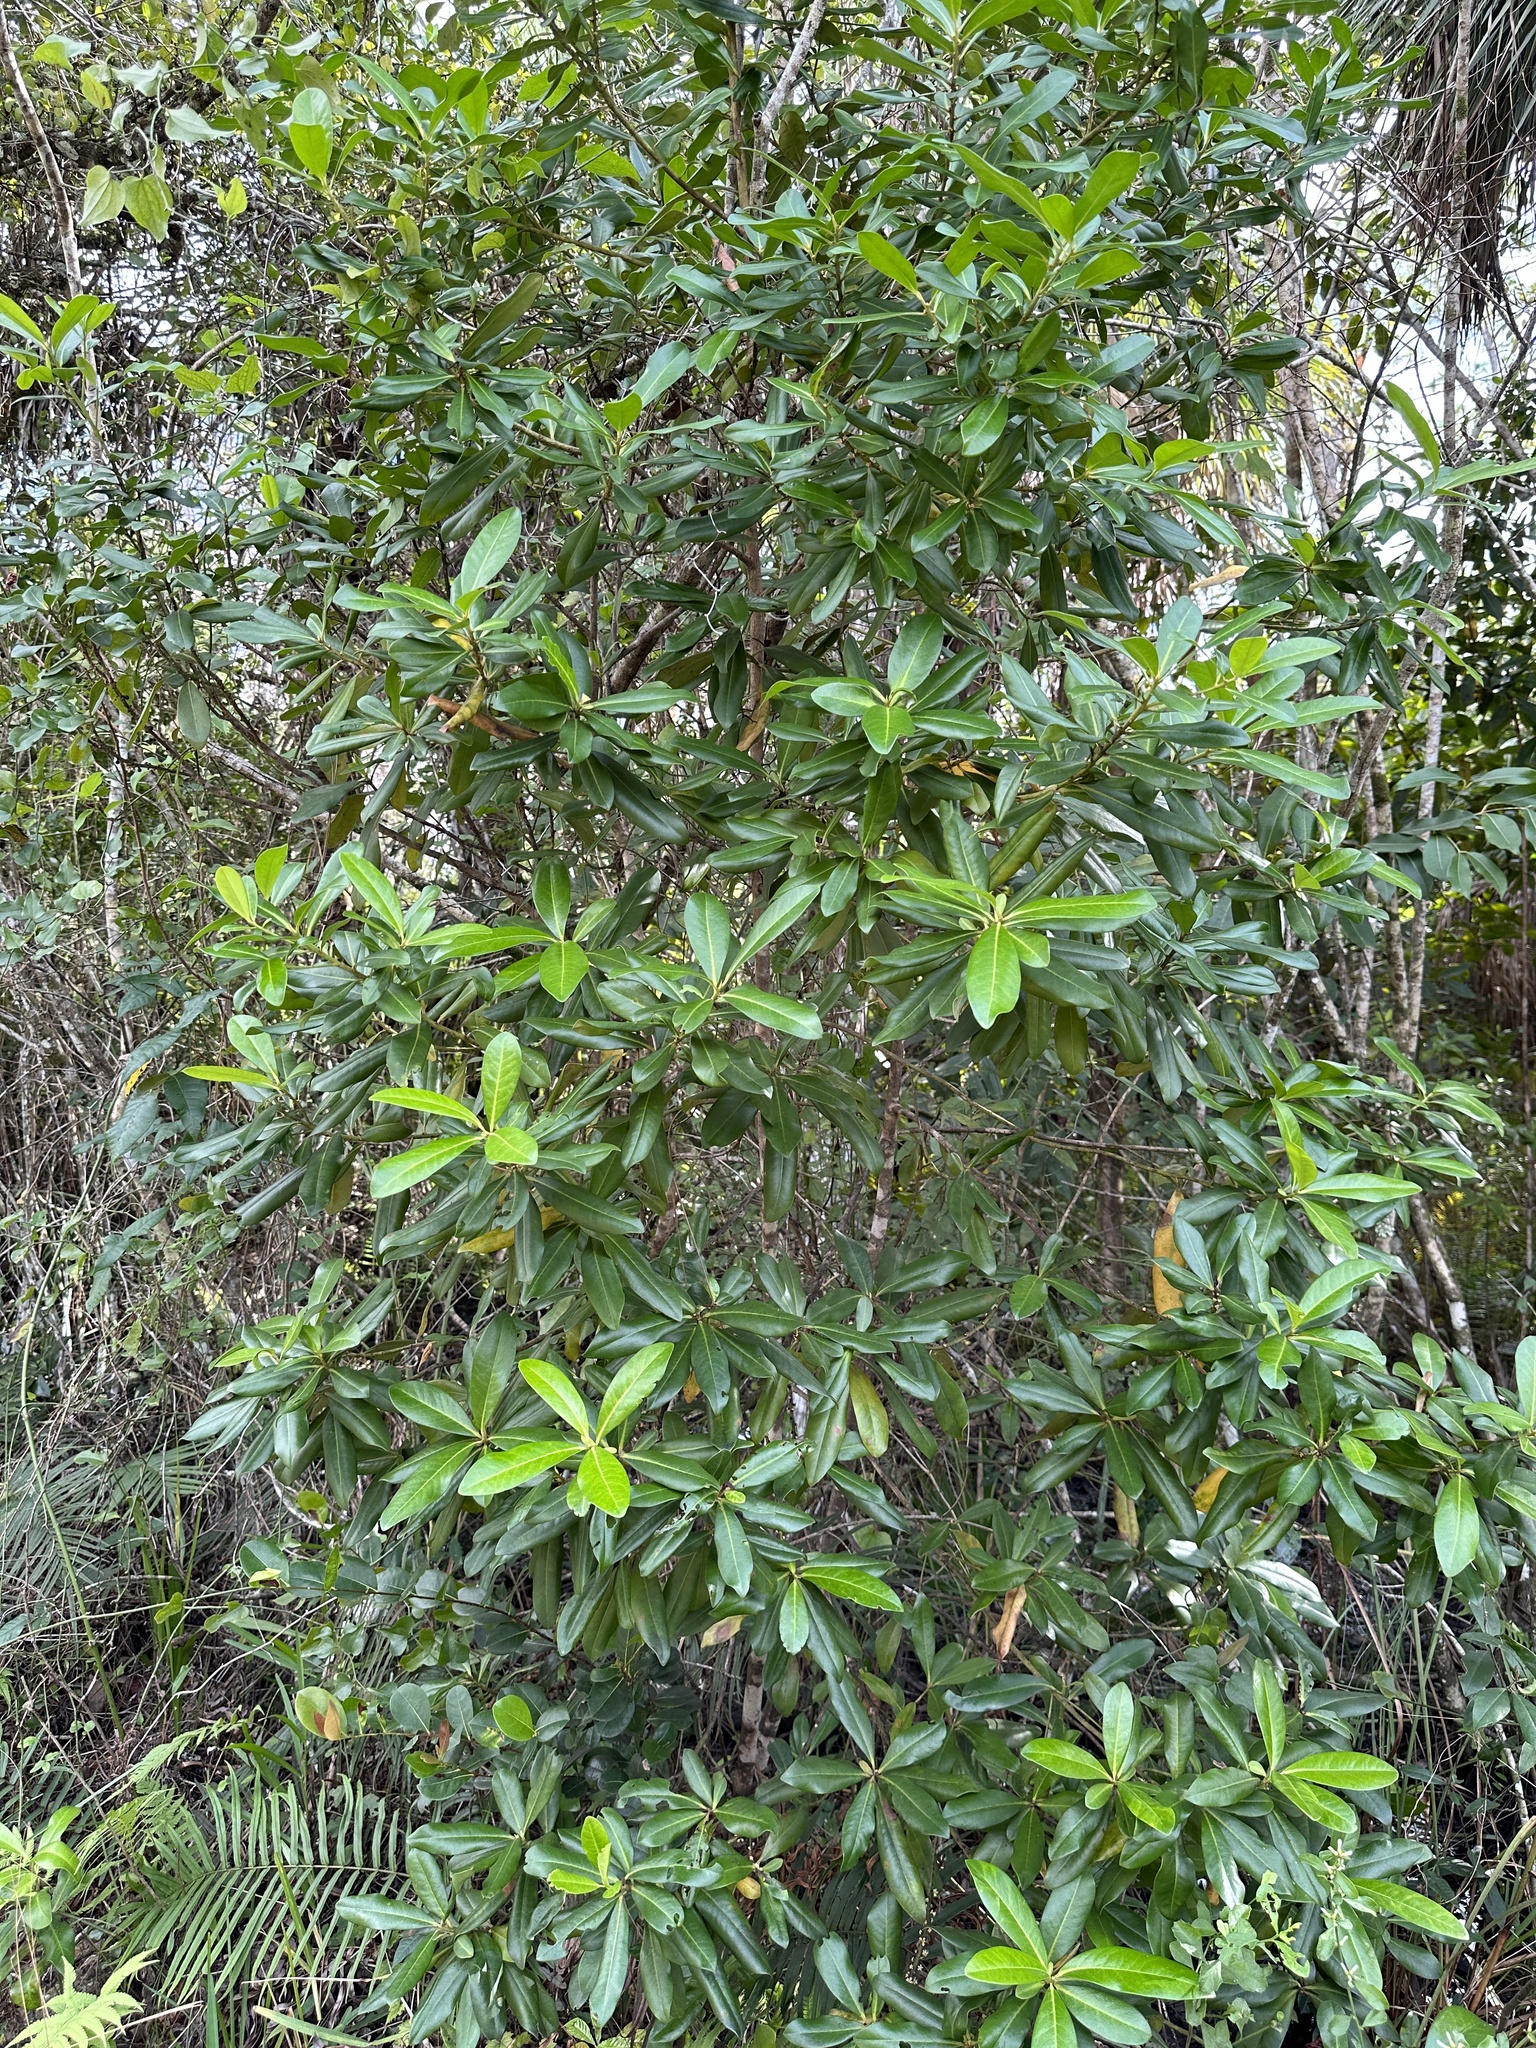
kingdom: Plantae
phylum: Tracheophyta
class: Magnoliopsida
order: Ericales
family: Primulaceae
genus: Myrsine
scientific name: Myrsine floridana
